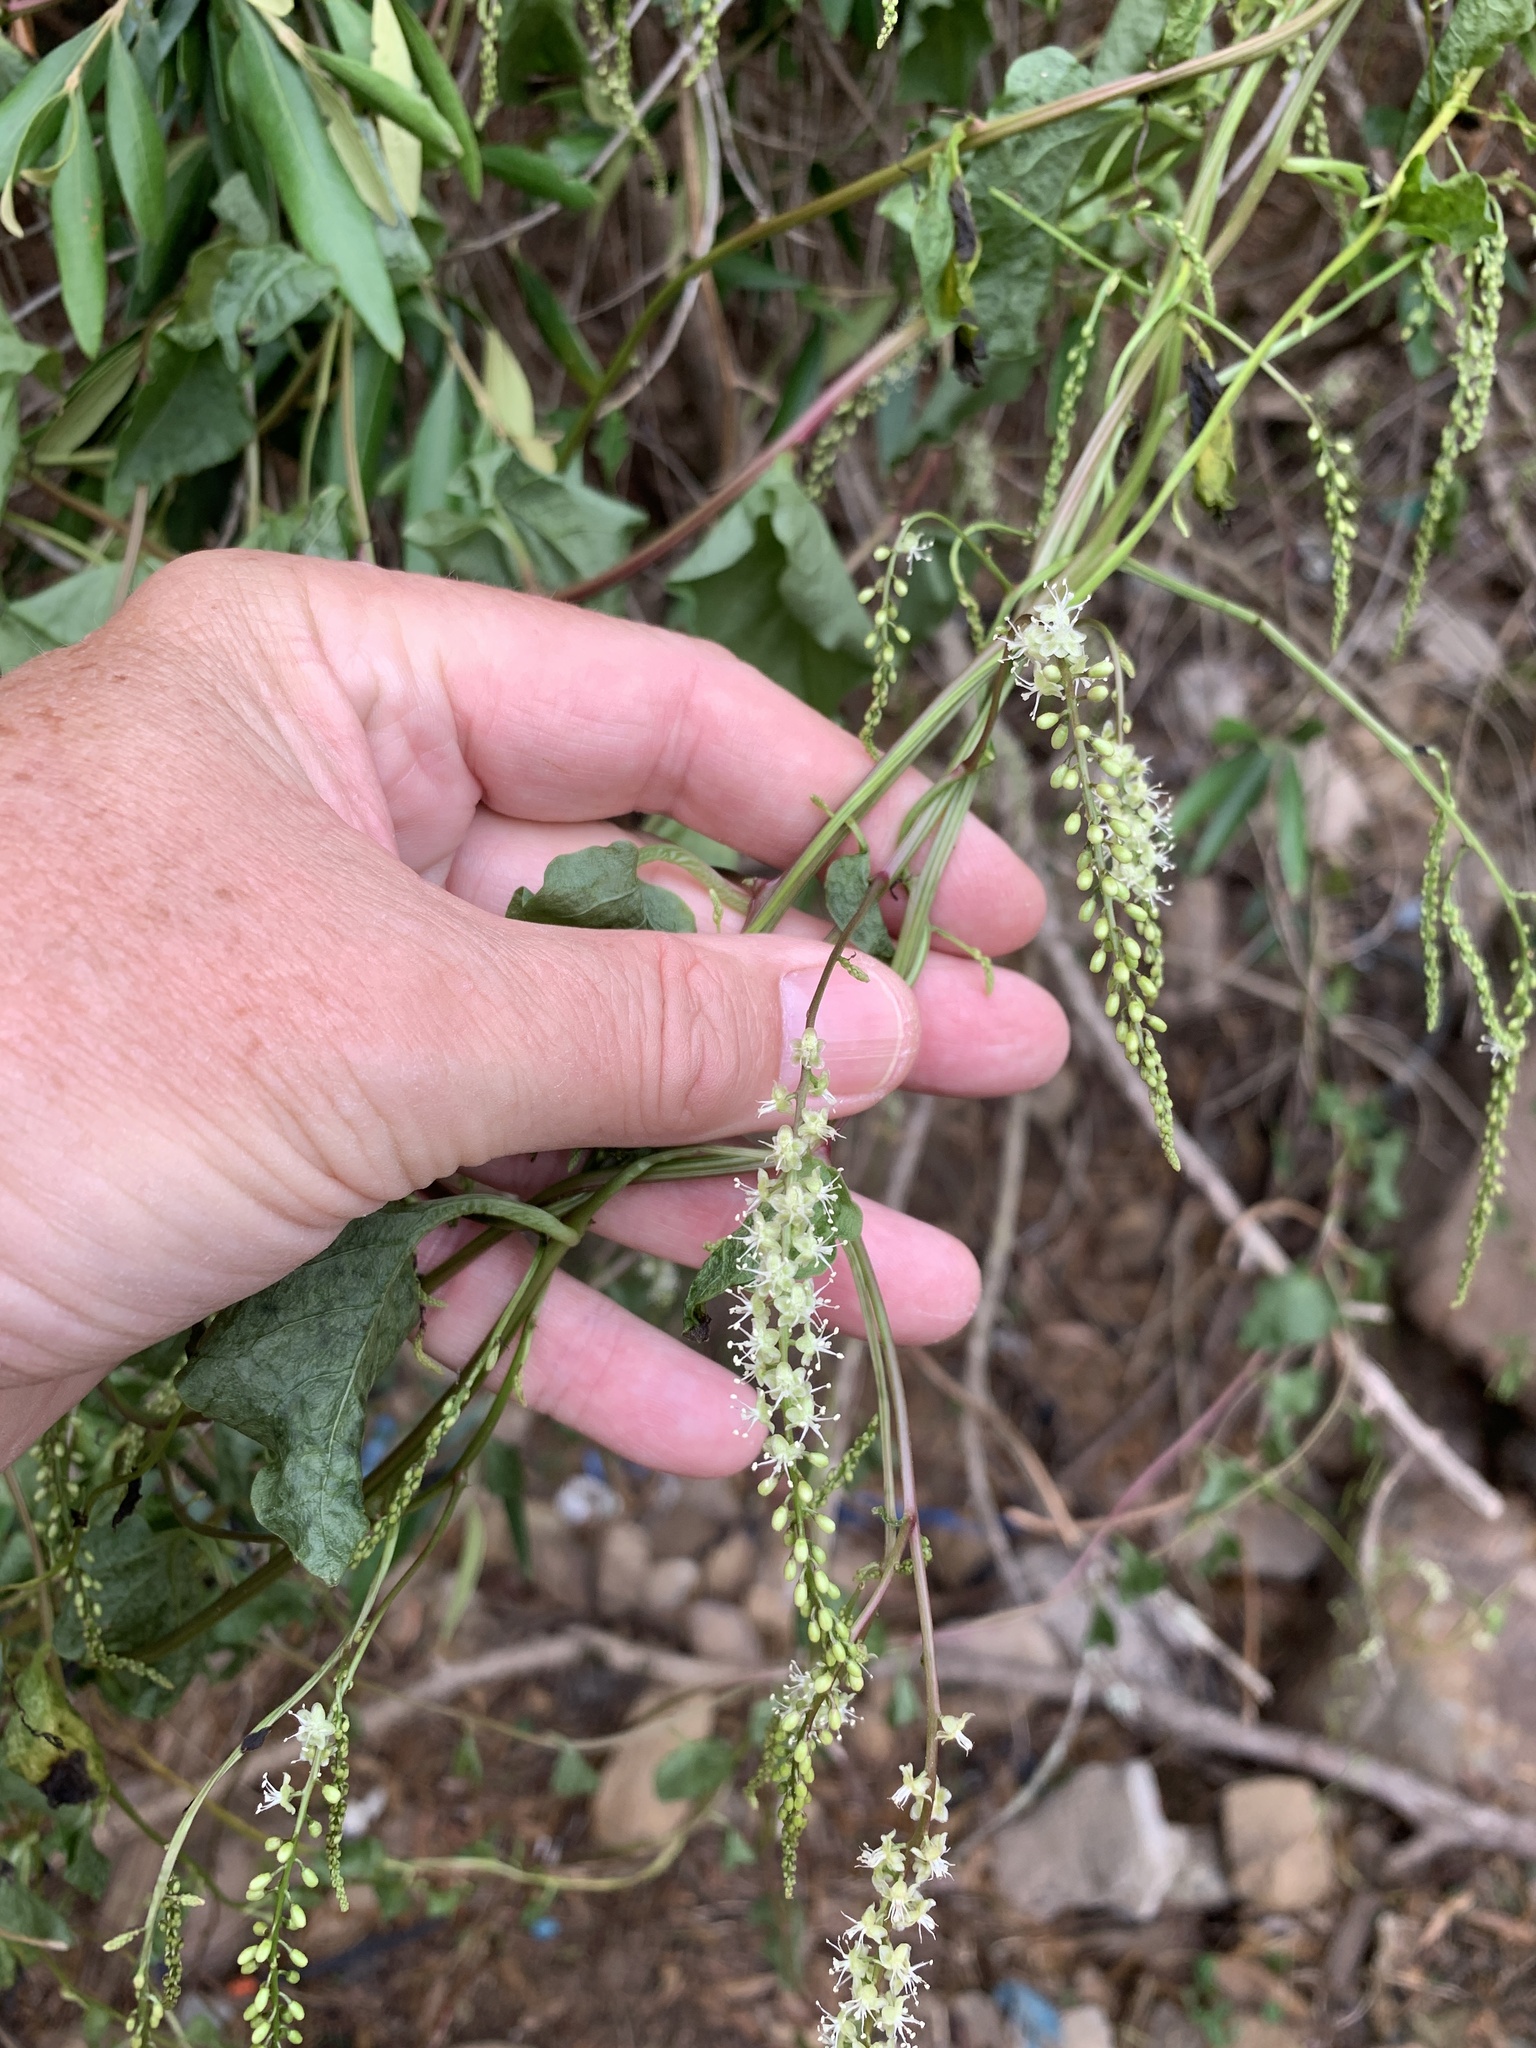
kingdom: Plantae
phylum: Tracheophyta
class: Magnoliopsida
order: Caryophyllales
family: Basellaceae
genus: Anredera
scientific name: Anredera cordifolia
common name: Heartleaf madeiravine
